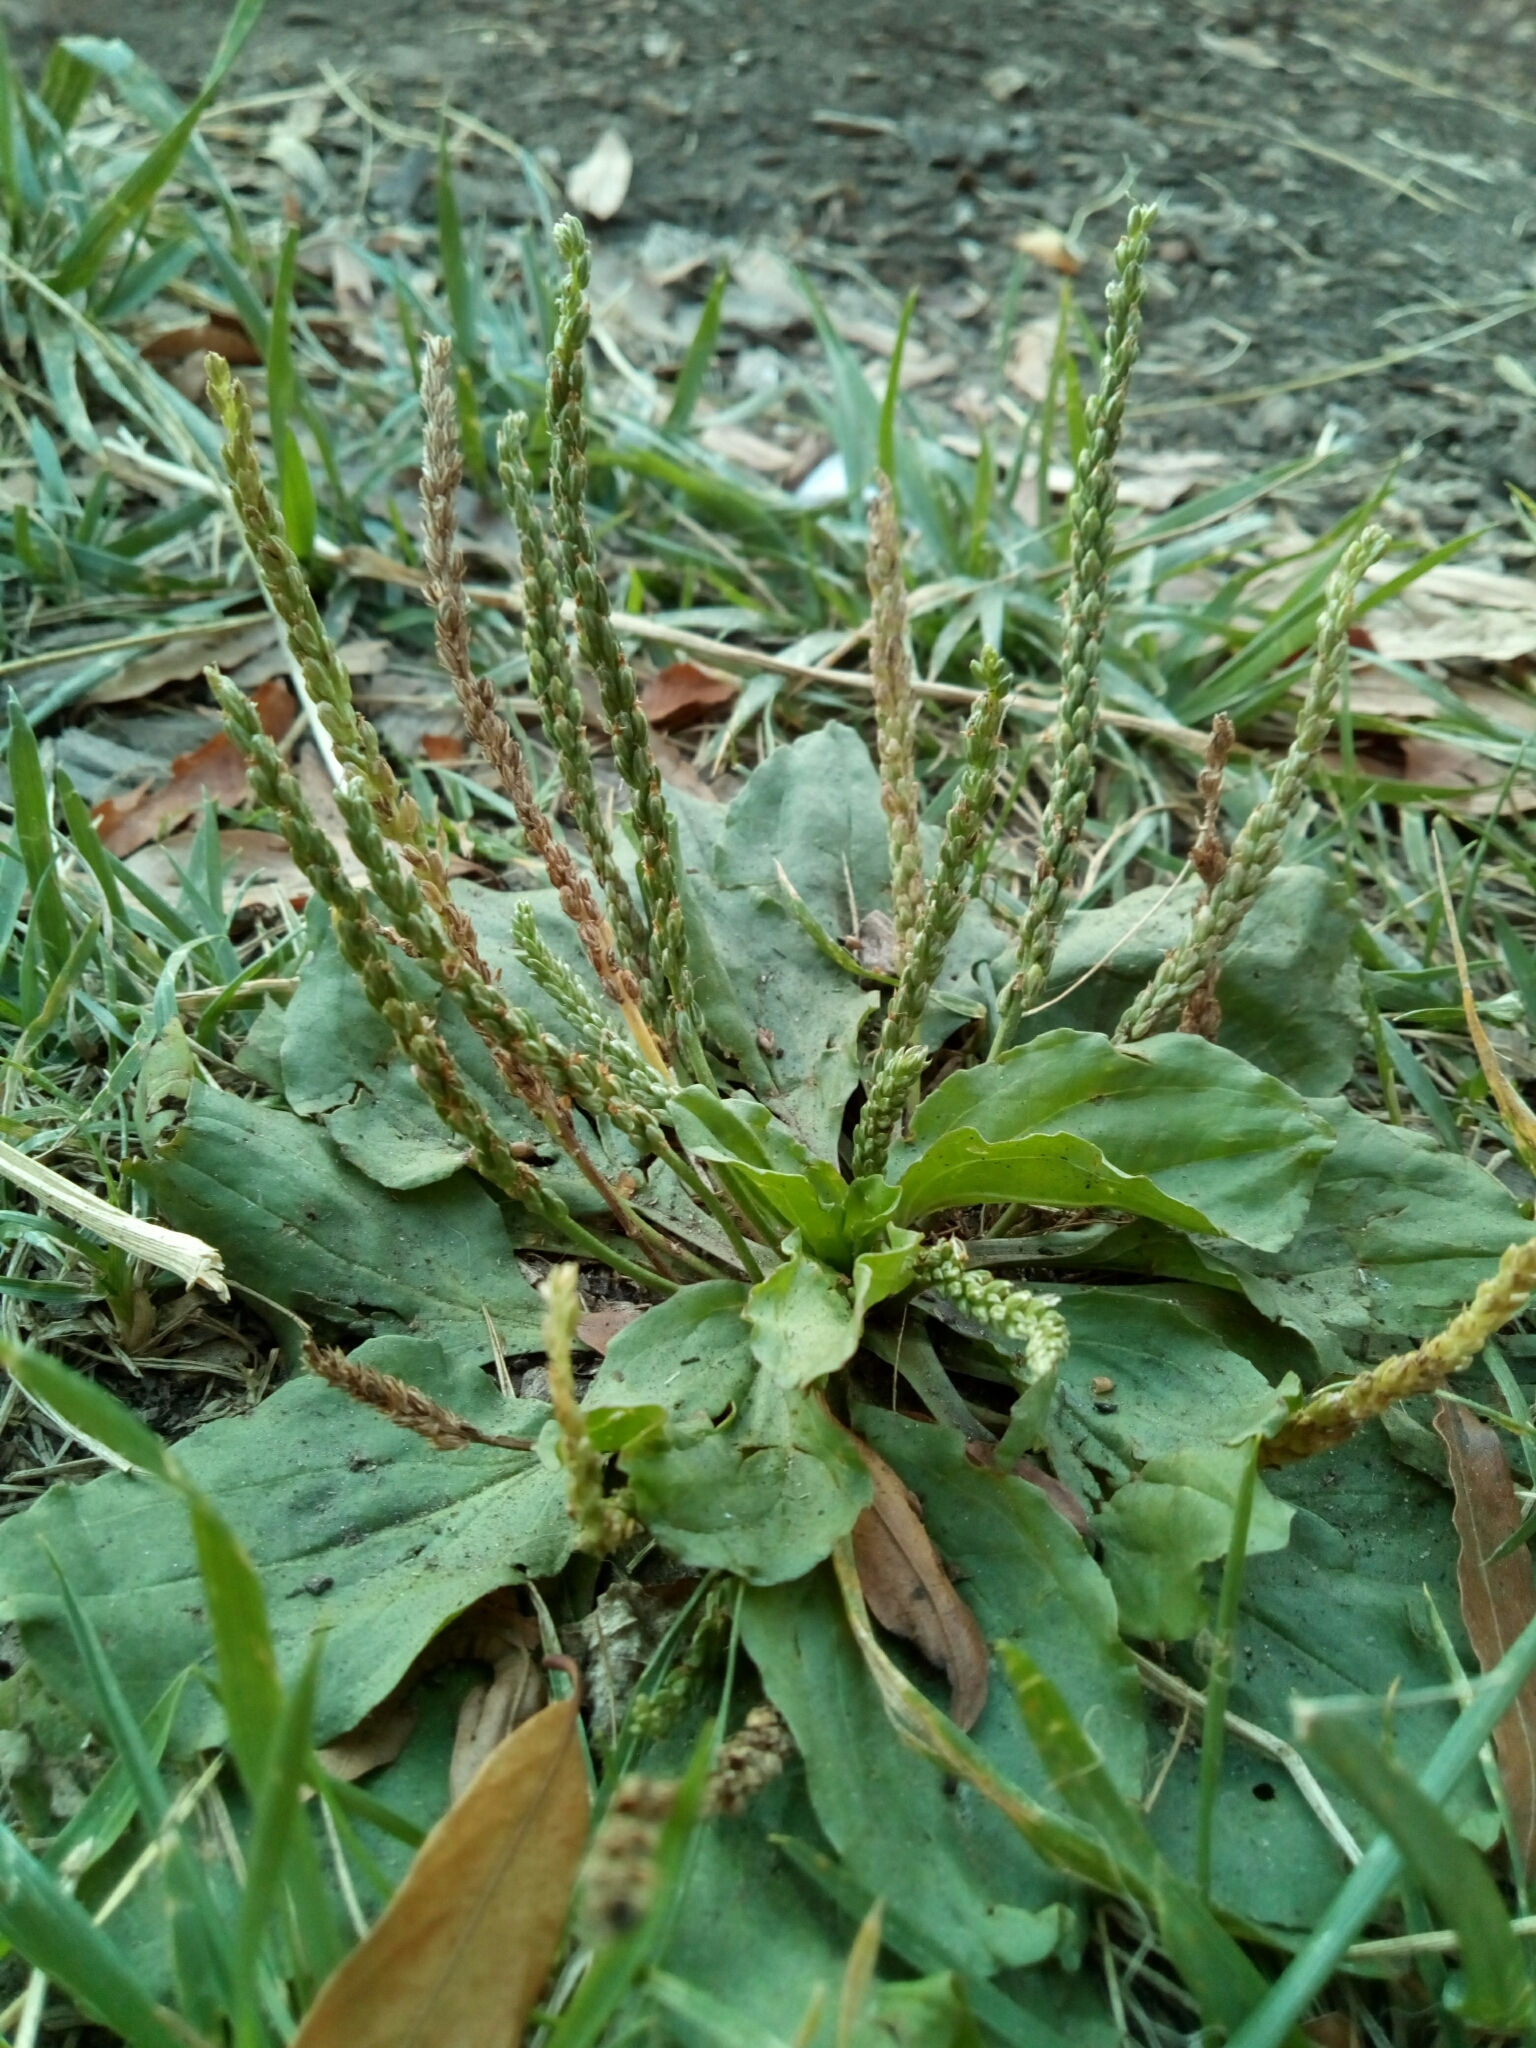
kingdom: Plantae
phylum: Tracheophyta
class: Magnoliopsida
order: Lamiales
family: Plantaginaceae
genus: Plantago
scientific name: Plantago major
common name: Common plantain
